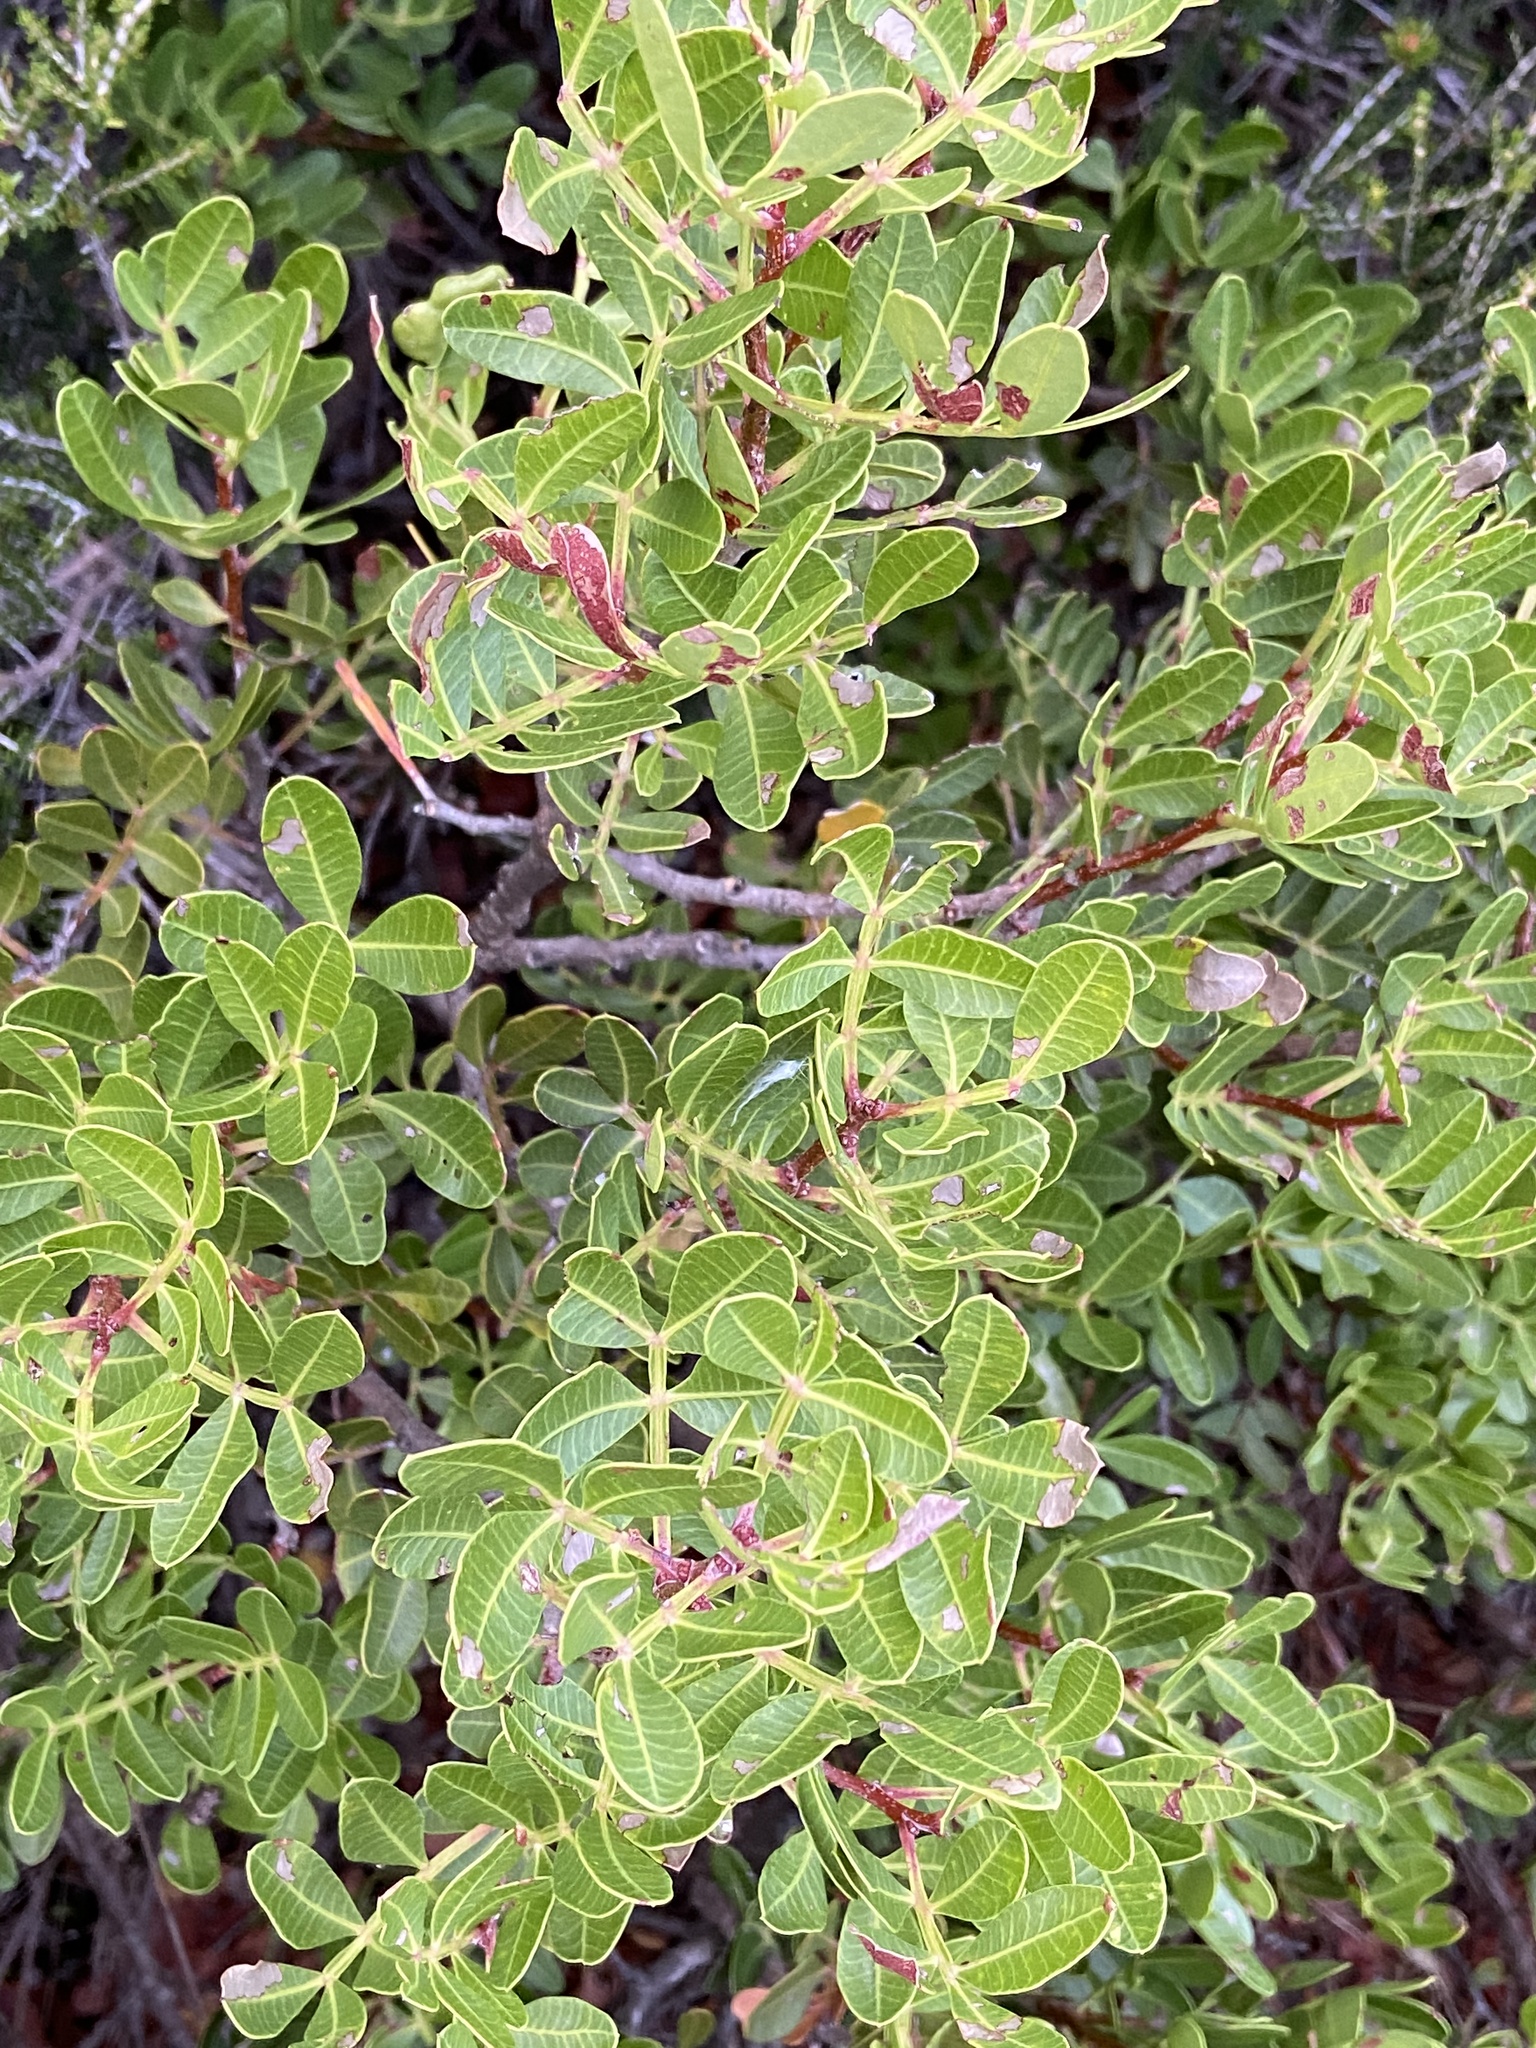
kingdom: Plantae
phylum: Tracheophyta
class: Magnoliopsida
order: Sapindales
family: Anacardiaceae
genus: Pistacia
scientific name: Pistacia lentiscus
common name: Lentisk
